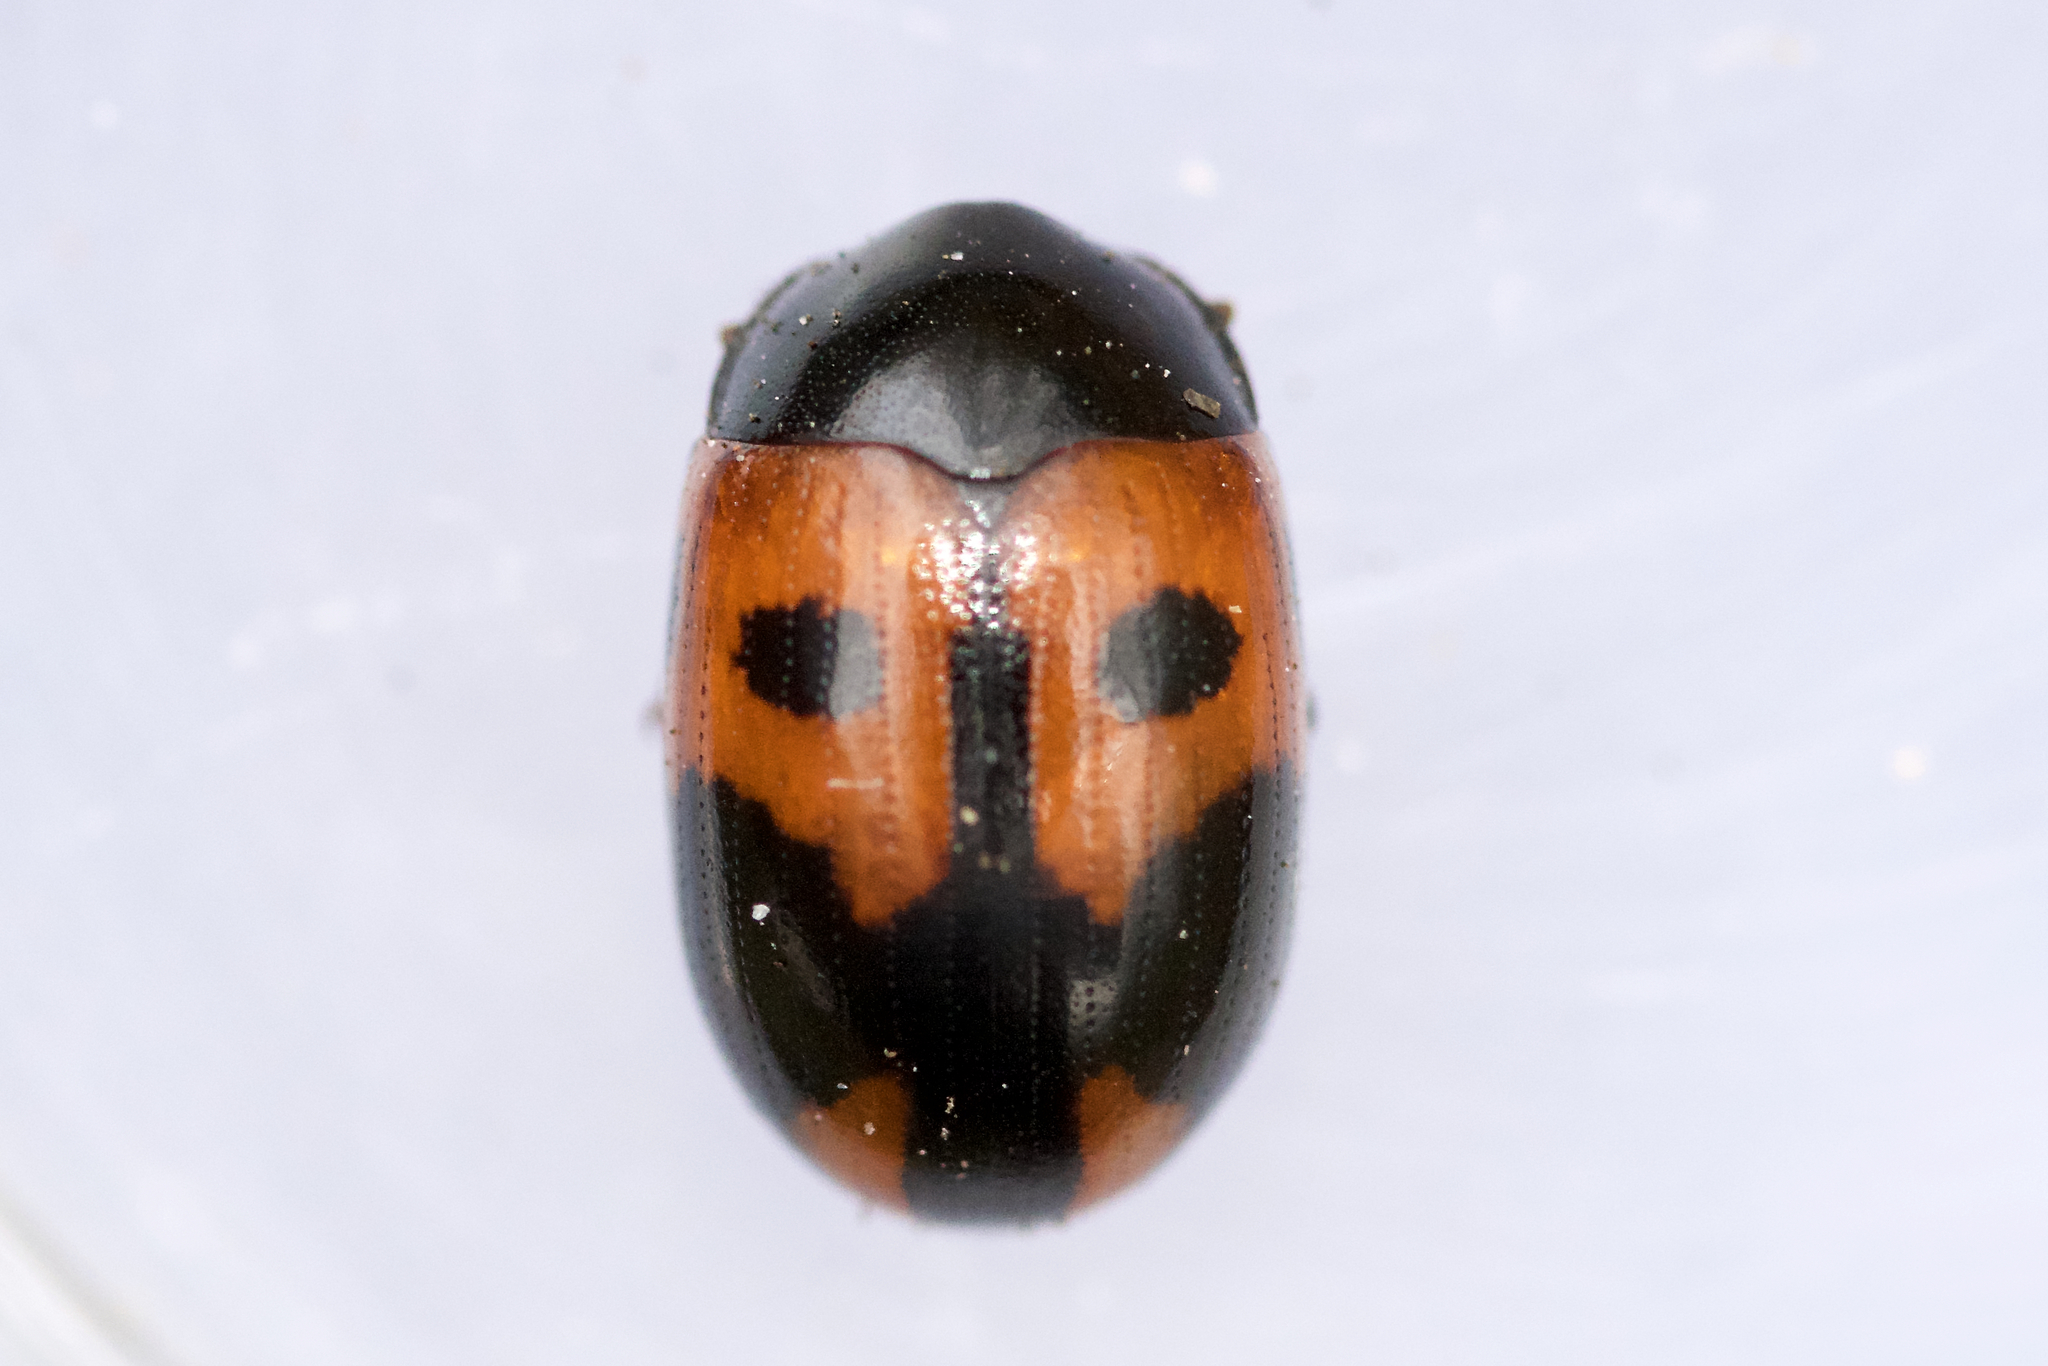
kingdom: Animalia
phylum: Arthropoda
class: Insecta
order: Coleoptera
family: Tenebrionidae
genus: Diaperis
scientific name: Diaperis maculata
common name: Darkling beetle
